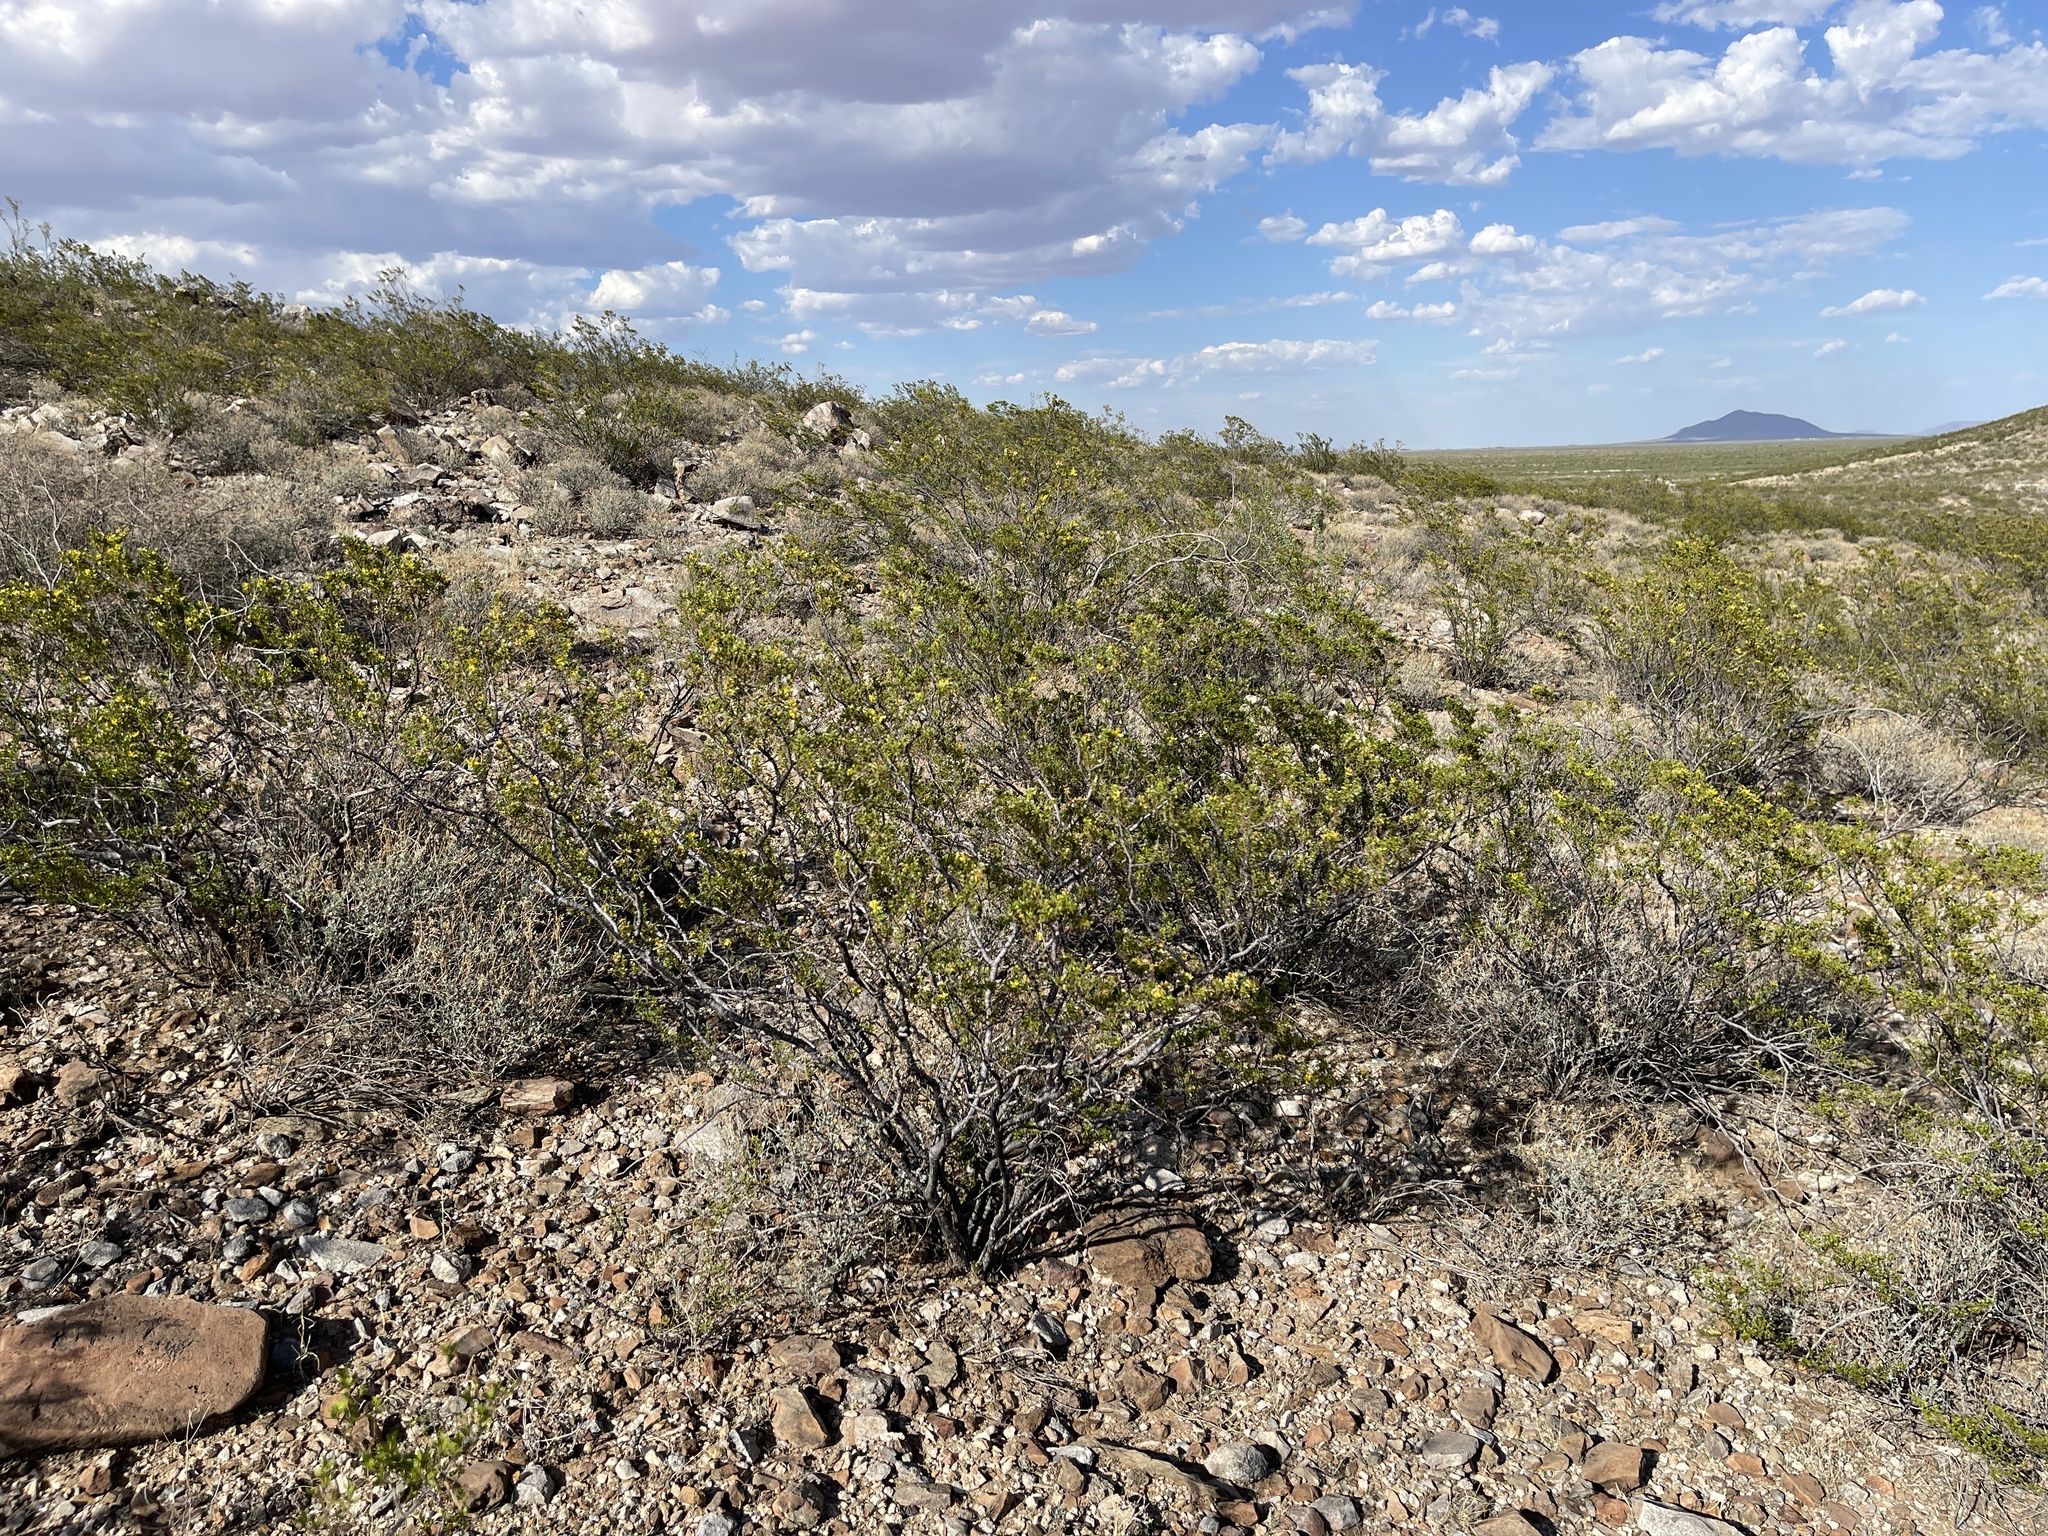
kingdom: Plantae
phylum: Tracheophyta
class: Magnoliopsida
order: Zygophyllales
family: Zygophyllaceae
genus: Larrea
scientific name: Larrea tridentata
